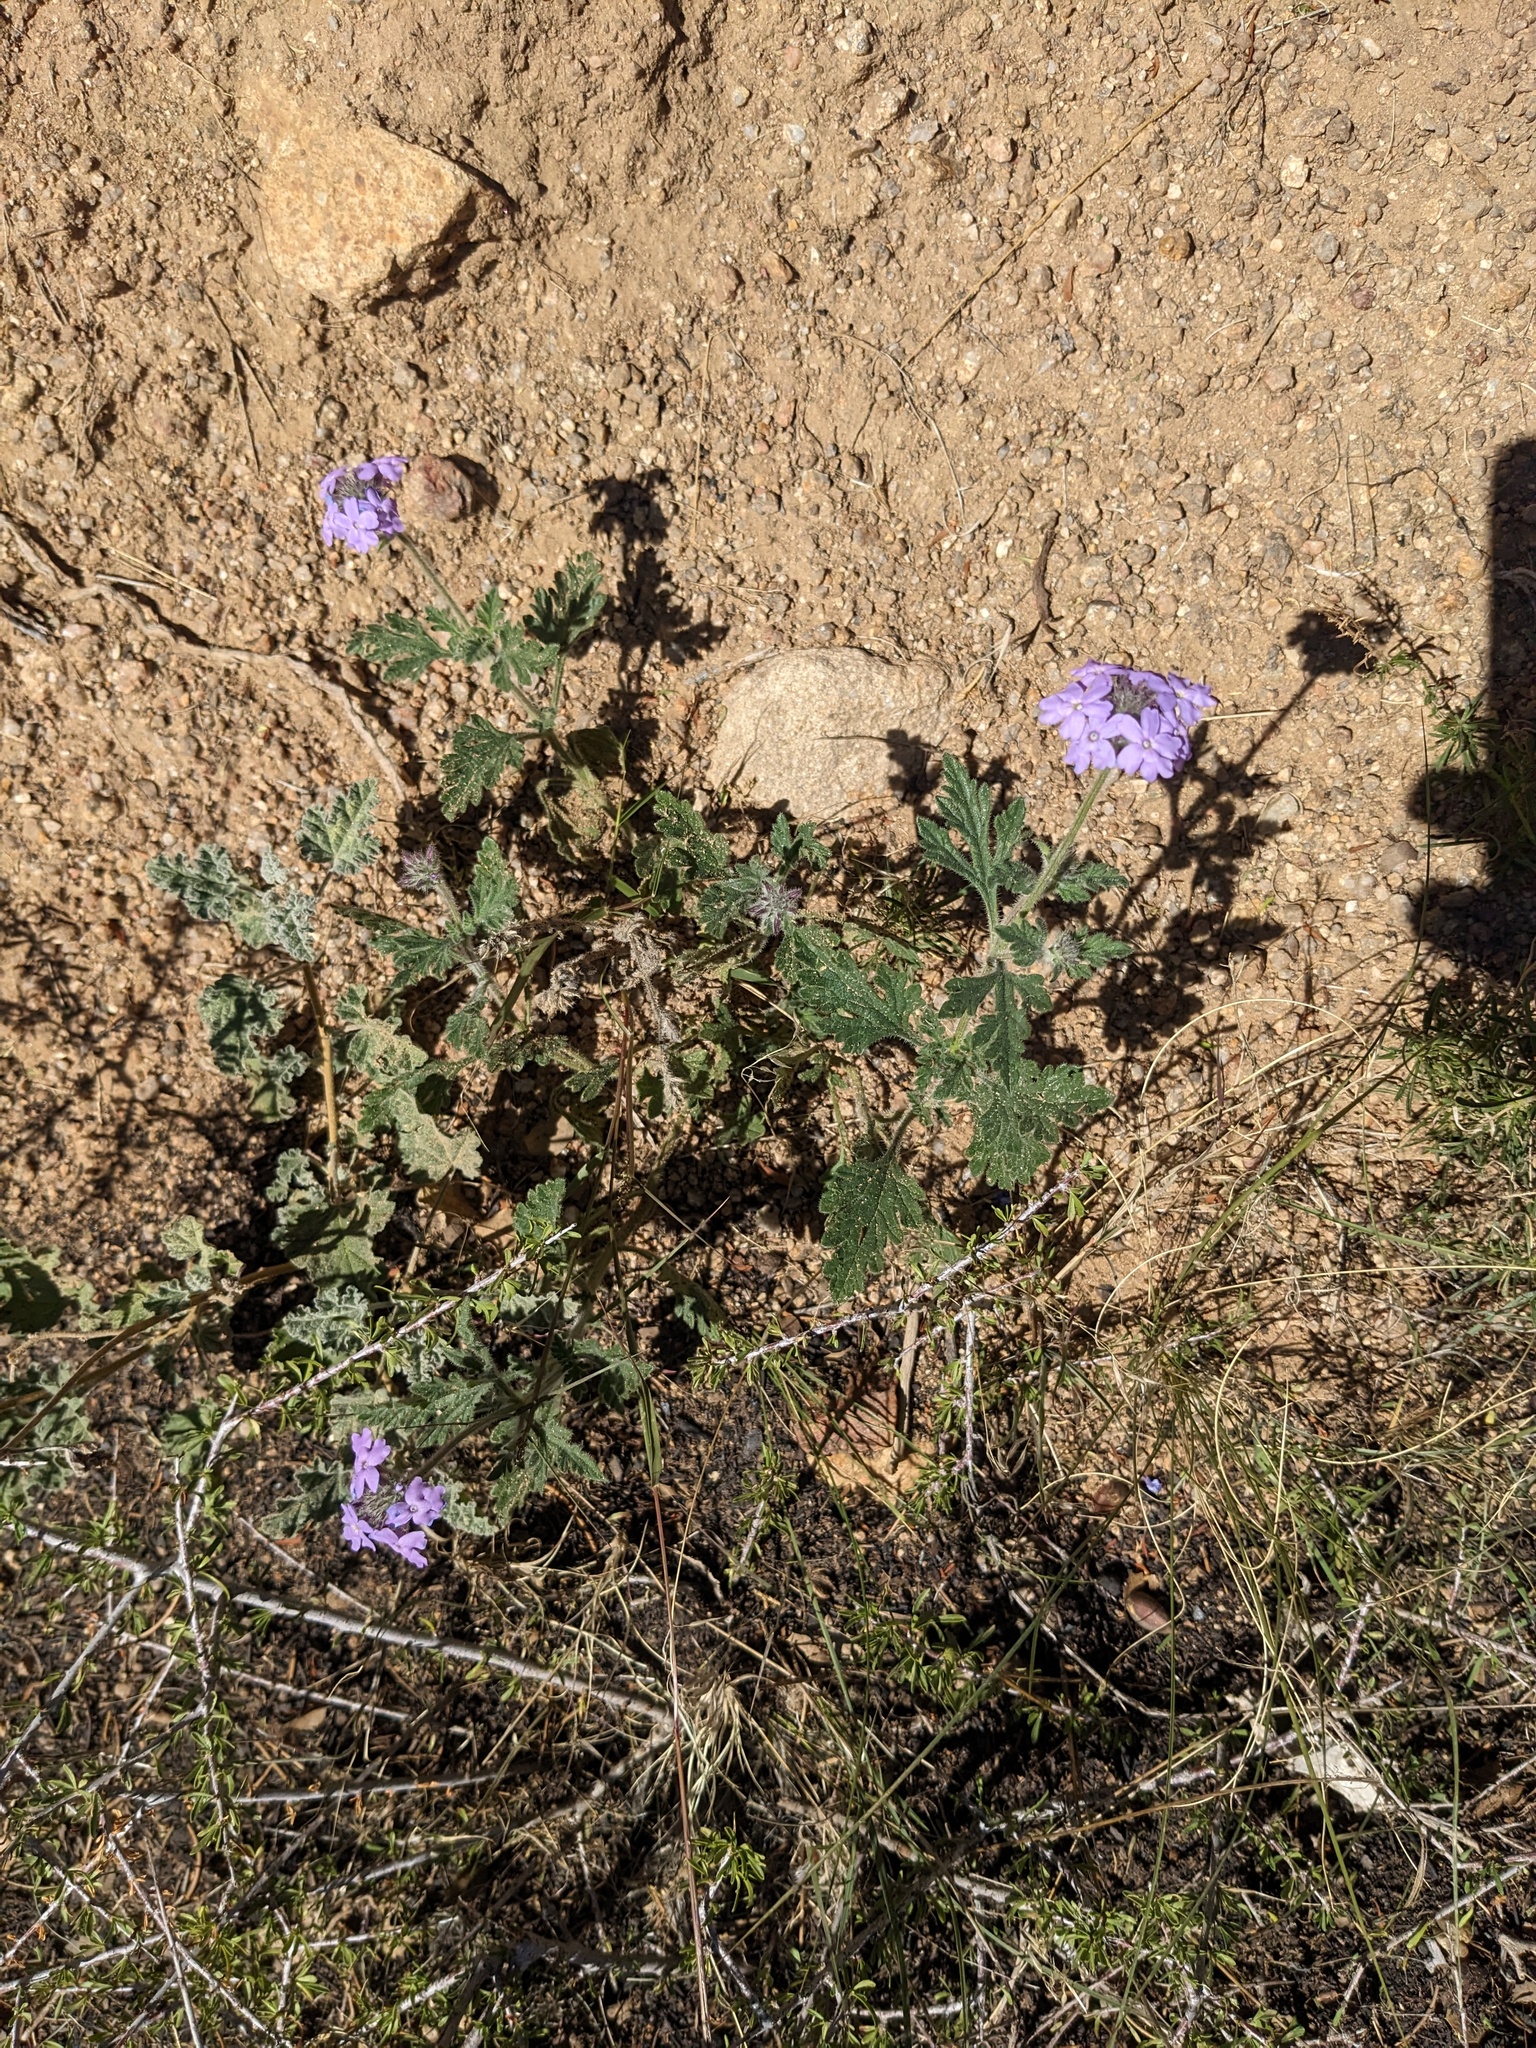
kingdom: Plantae
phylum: Tracheophyta
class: Magnoliopsida
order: Lamiales
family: Verbenaceae
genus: Verbena
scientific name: Verbena gooddingii
